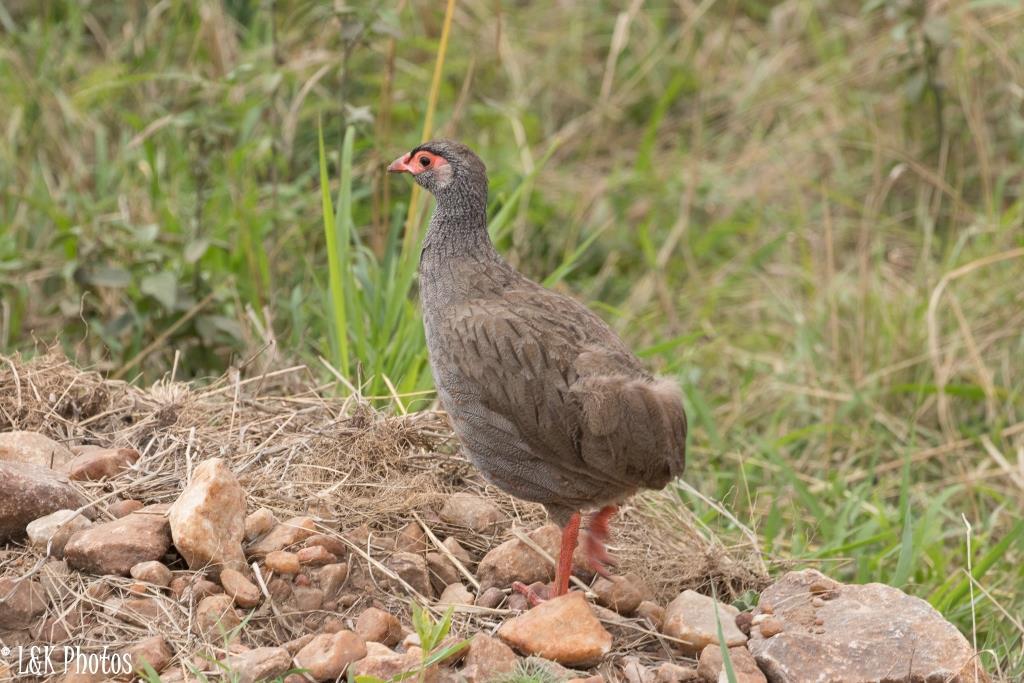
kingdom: Animalia
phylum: Chordata
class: Aves
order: Galliformes
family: Phasianidae
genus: Pternistis
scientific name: Pternistis afer
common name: Red-necked spurfowl
